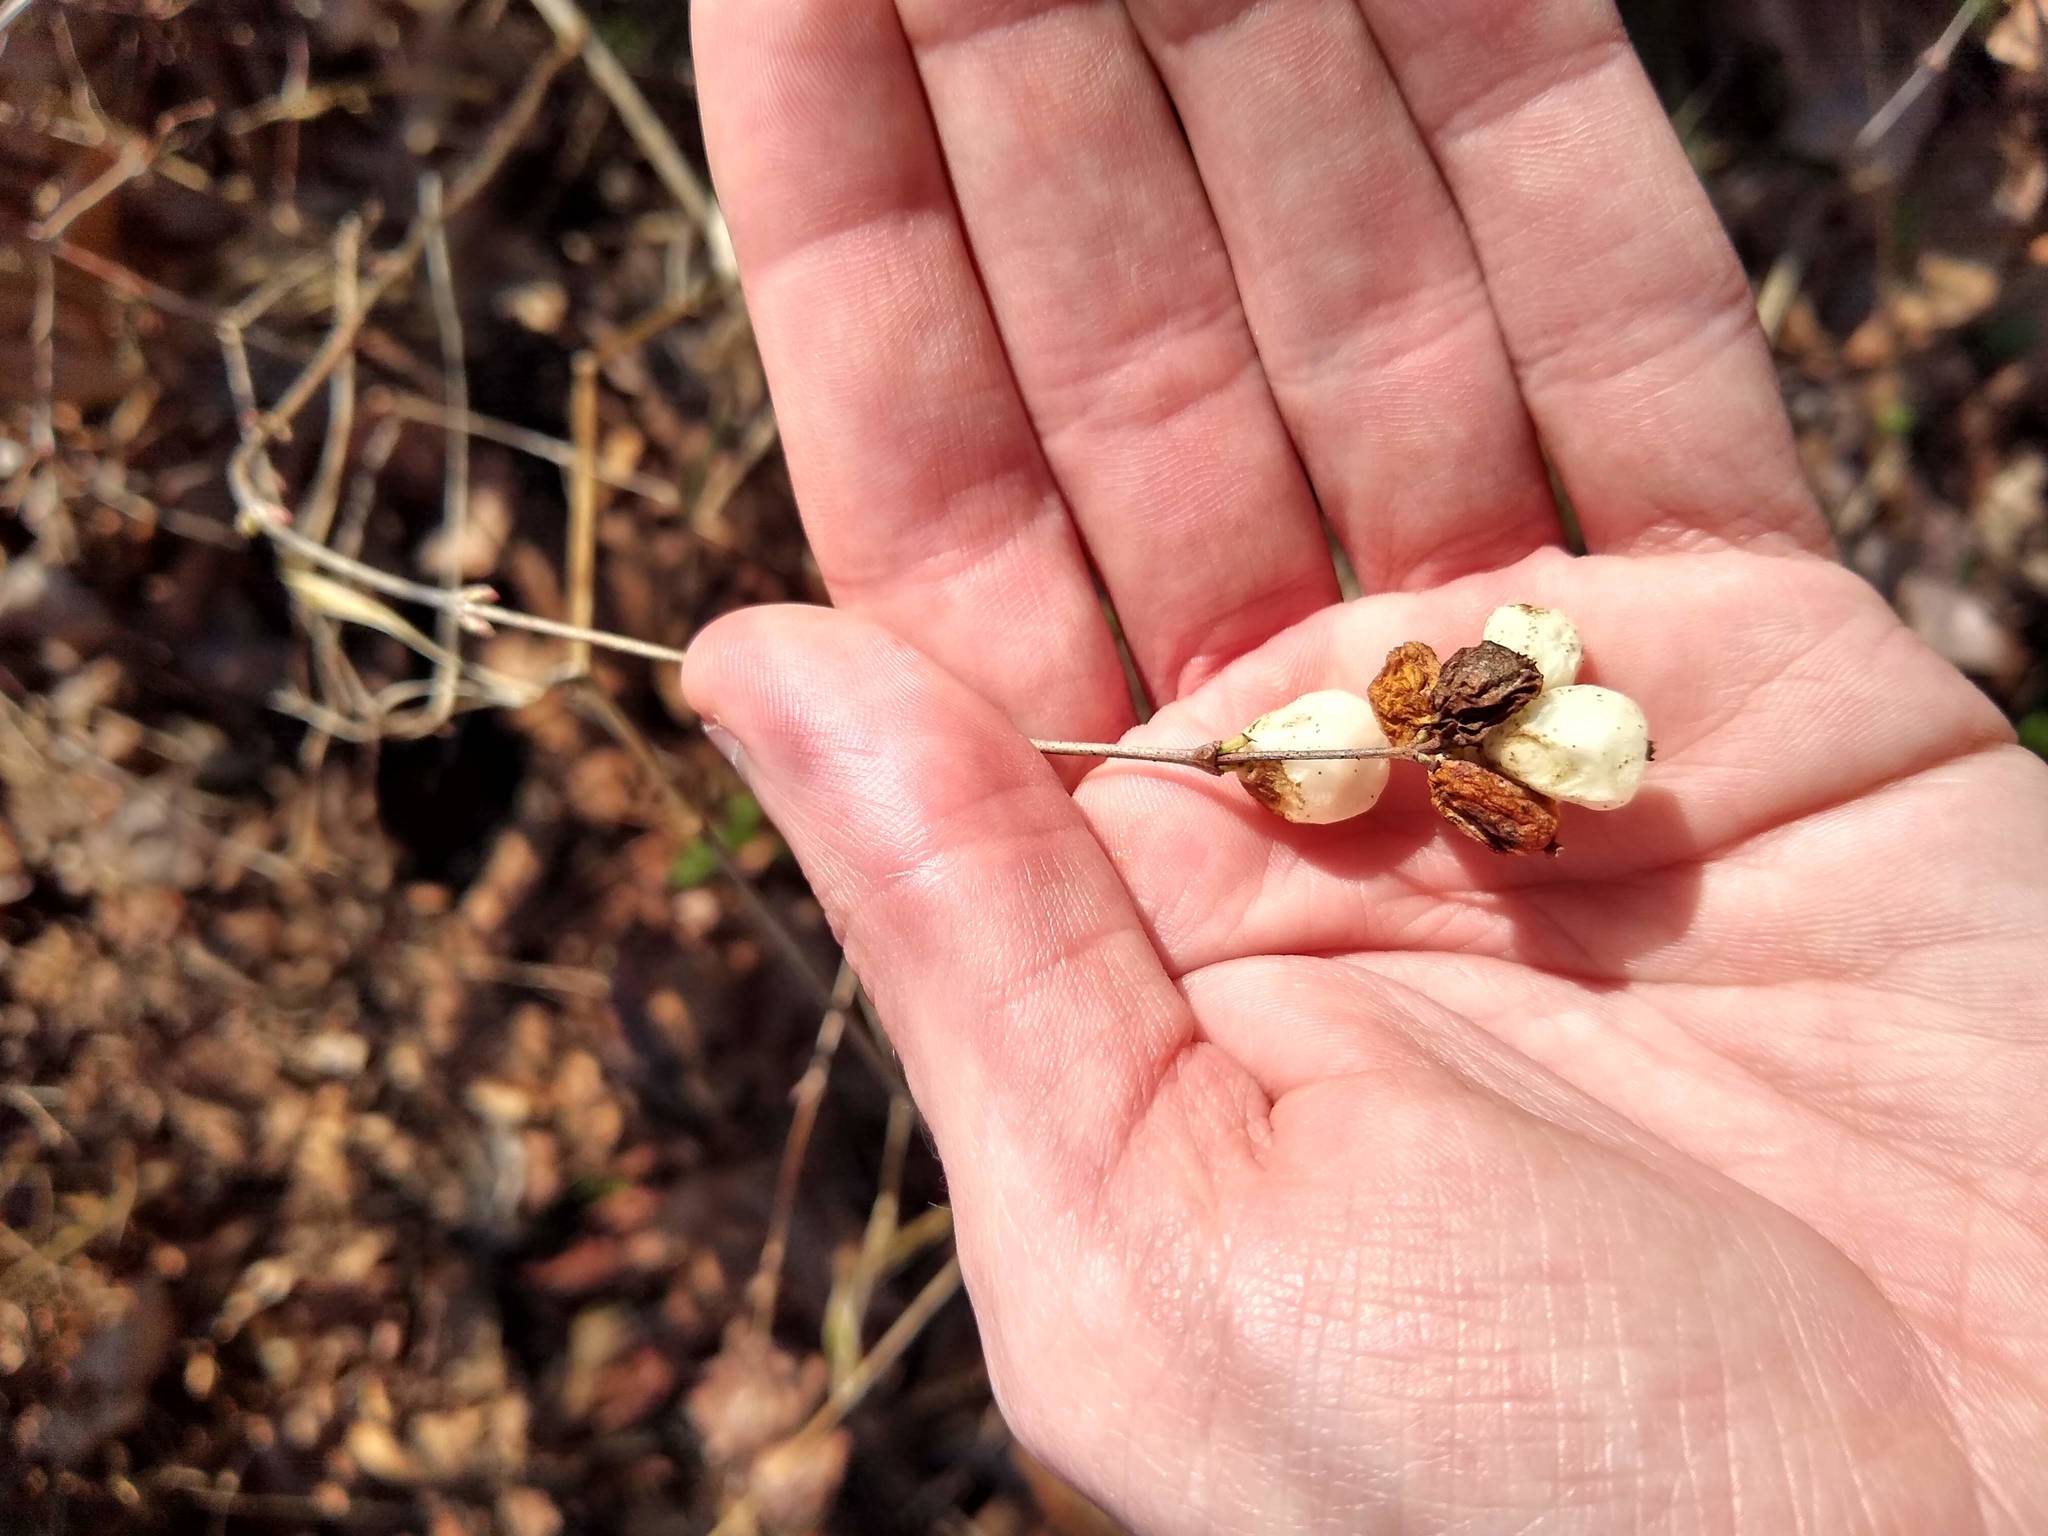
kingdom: Plantae
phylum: Tracheophyta
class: Magnoliopsida
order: Dipsacales
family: Caprifoliaceae
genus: Symphoricarpos
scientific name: Symphoricarpos albus
